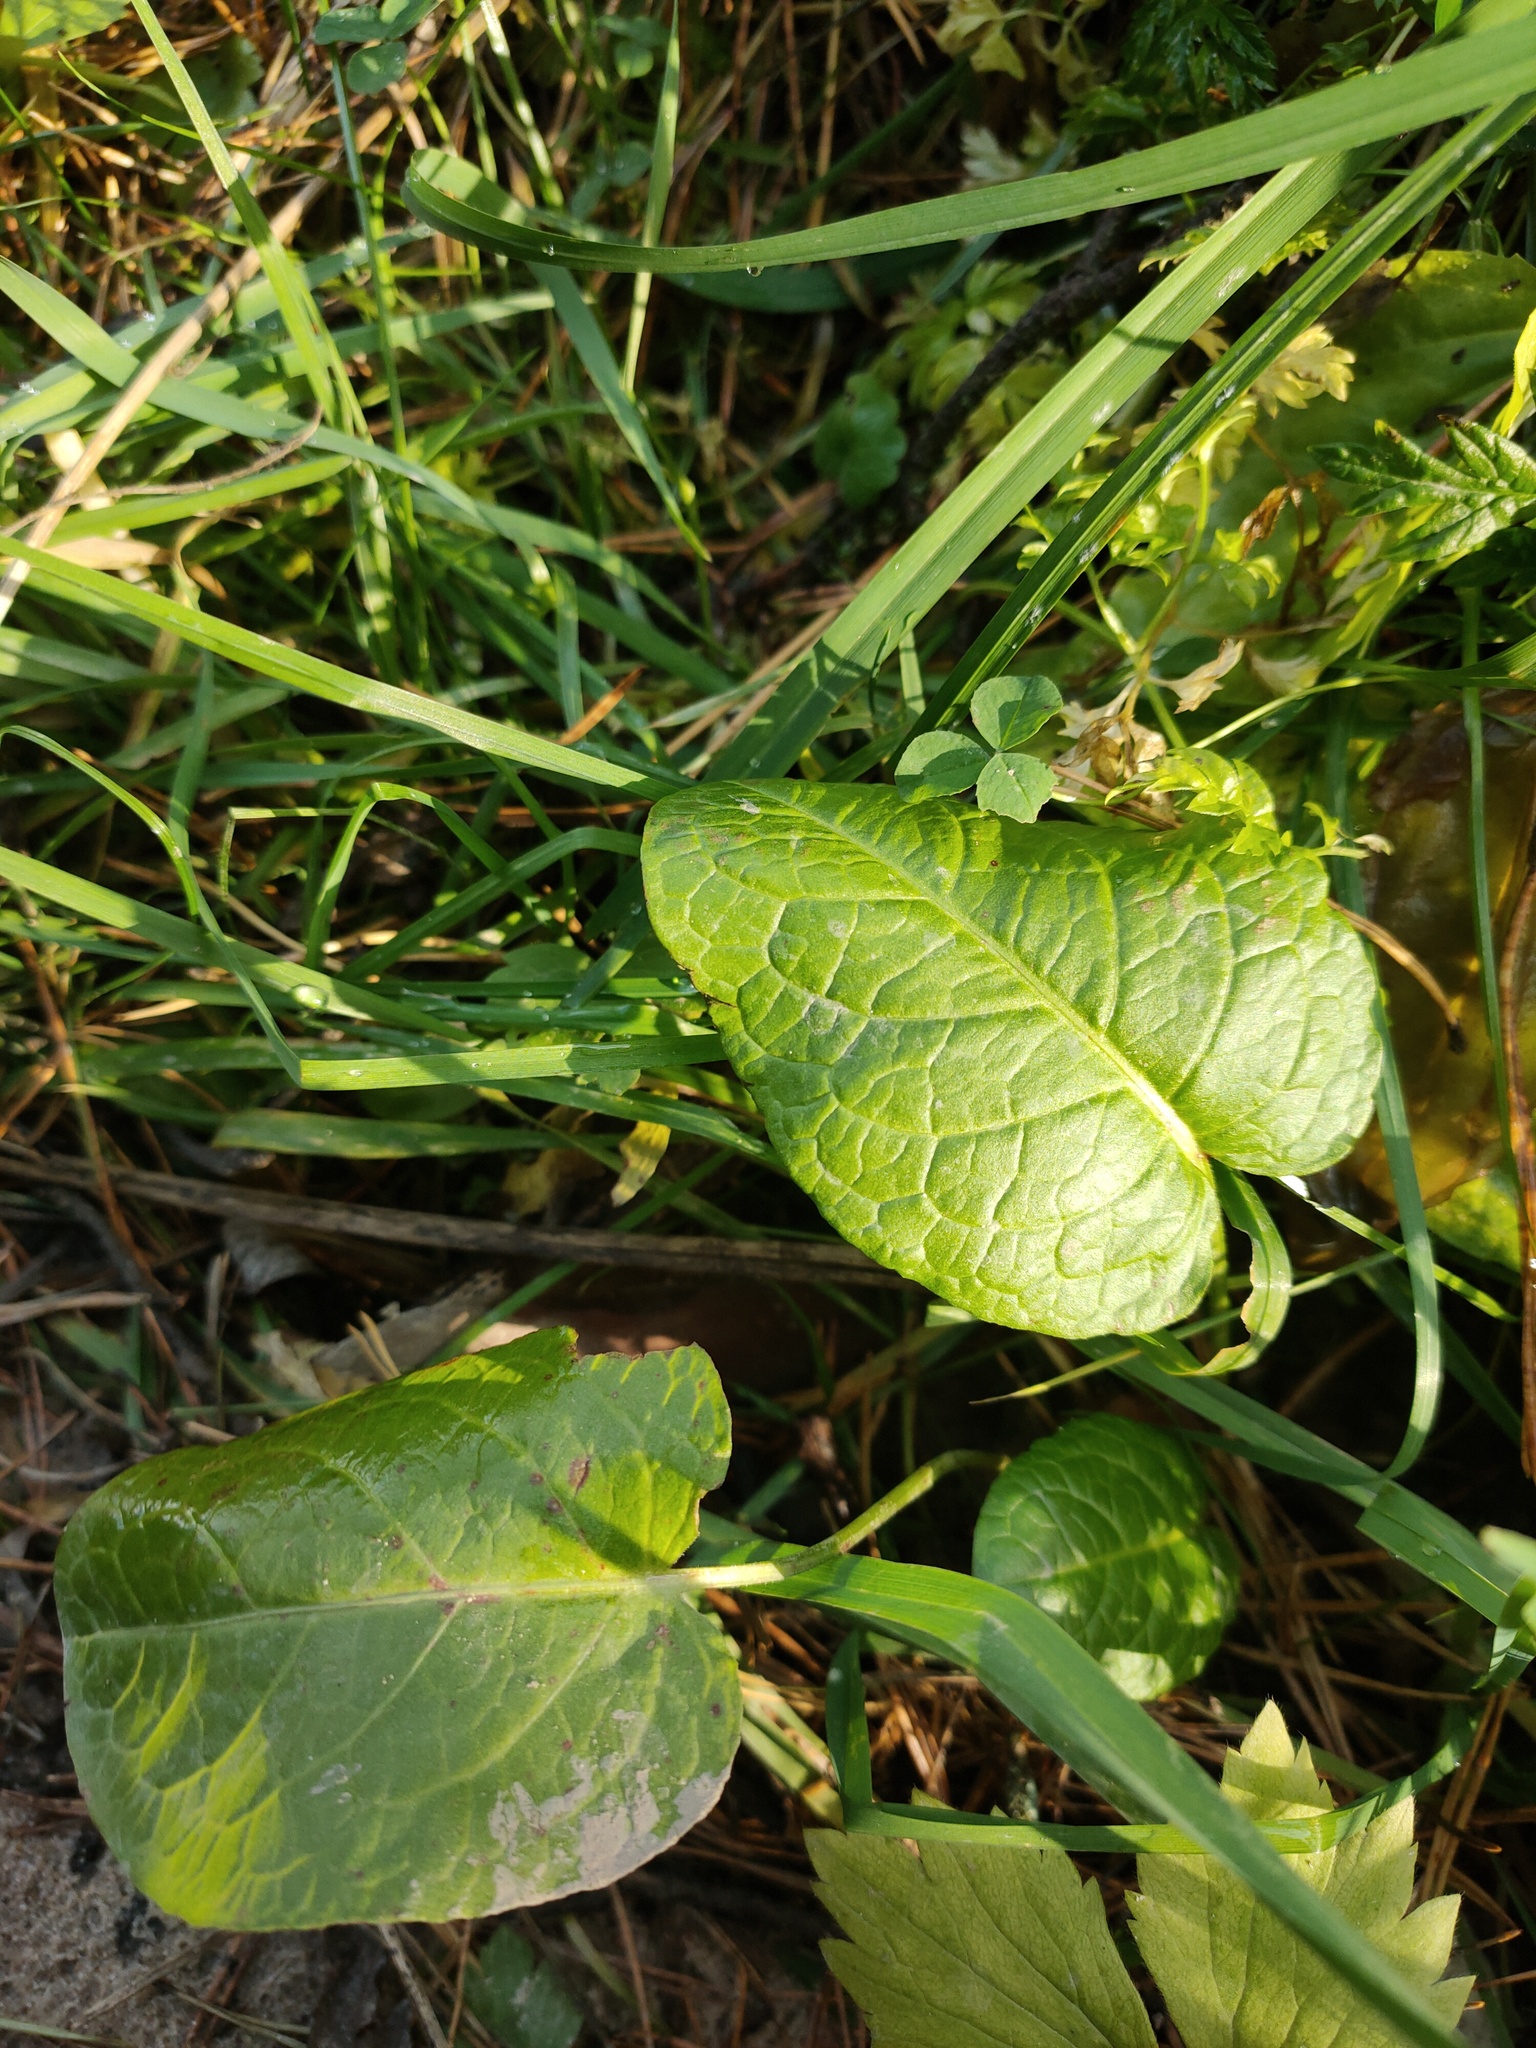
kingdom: Plantae
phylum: Tracheophyta
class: Magnoliopsida
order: Caryophyllales
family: Polygonaceae
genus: Rumex
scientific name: Rumex obtusifolius
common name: Bitter dock
